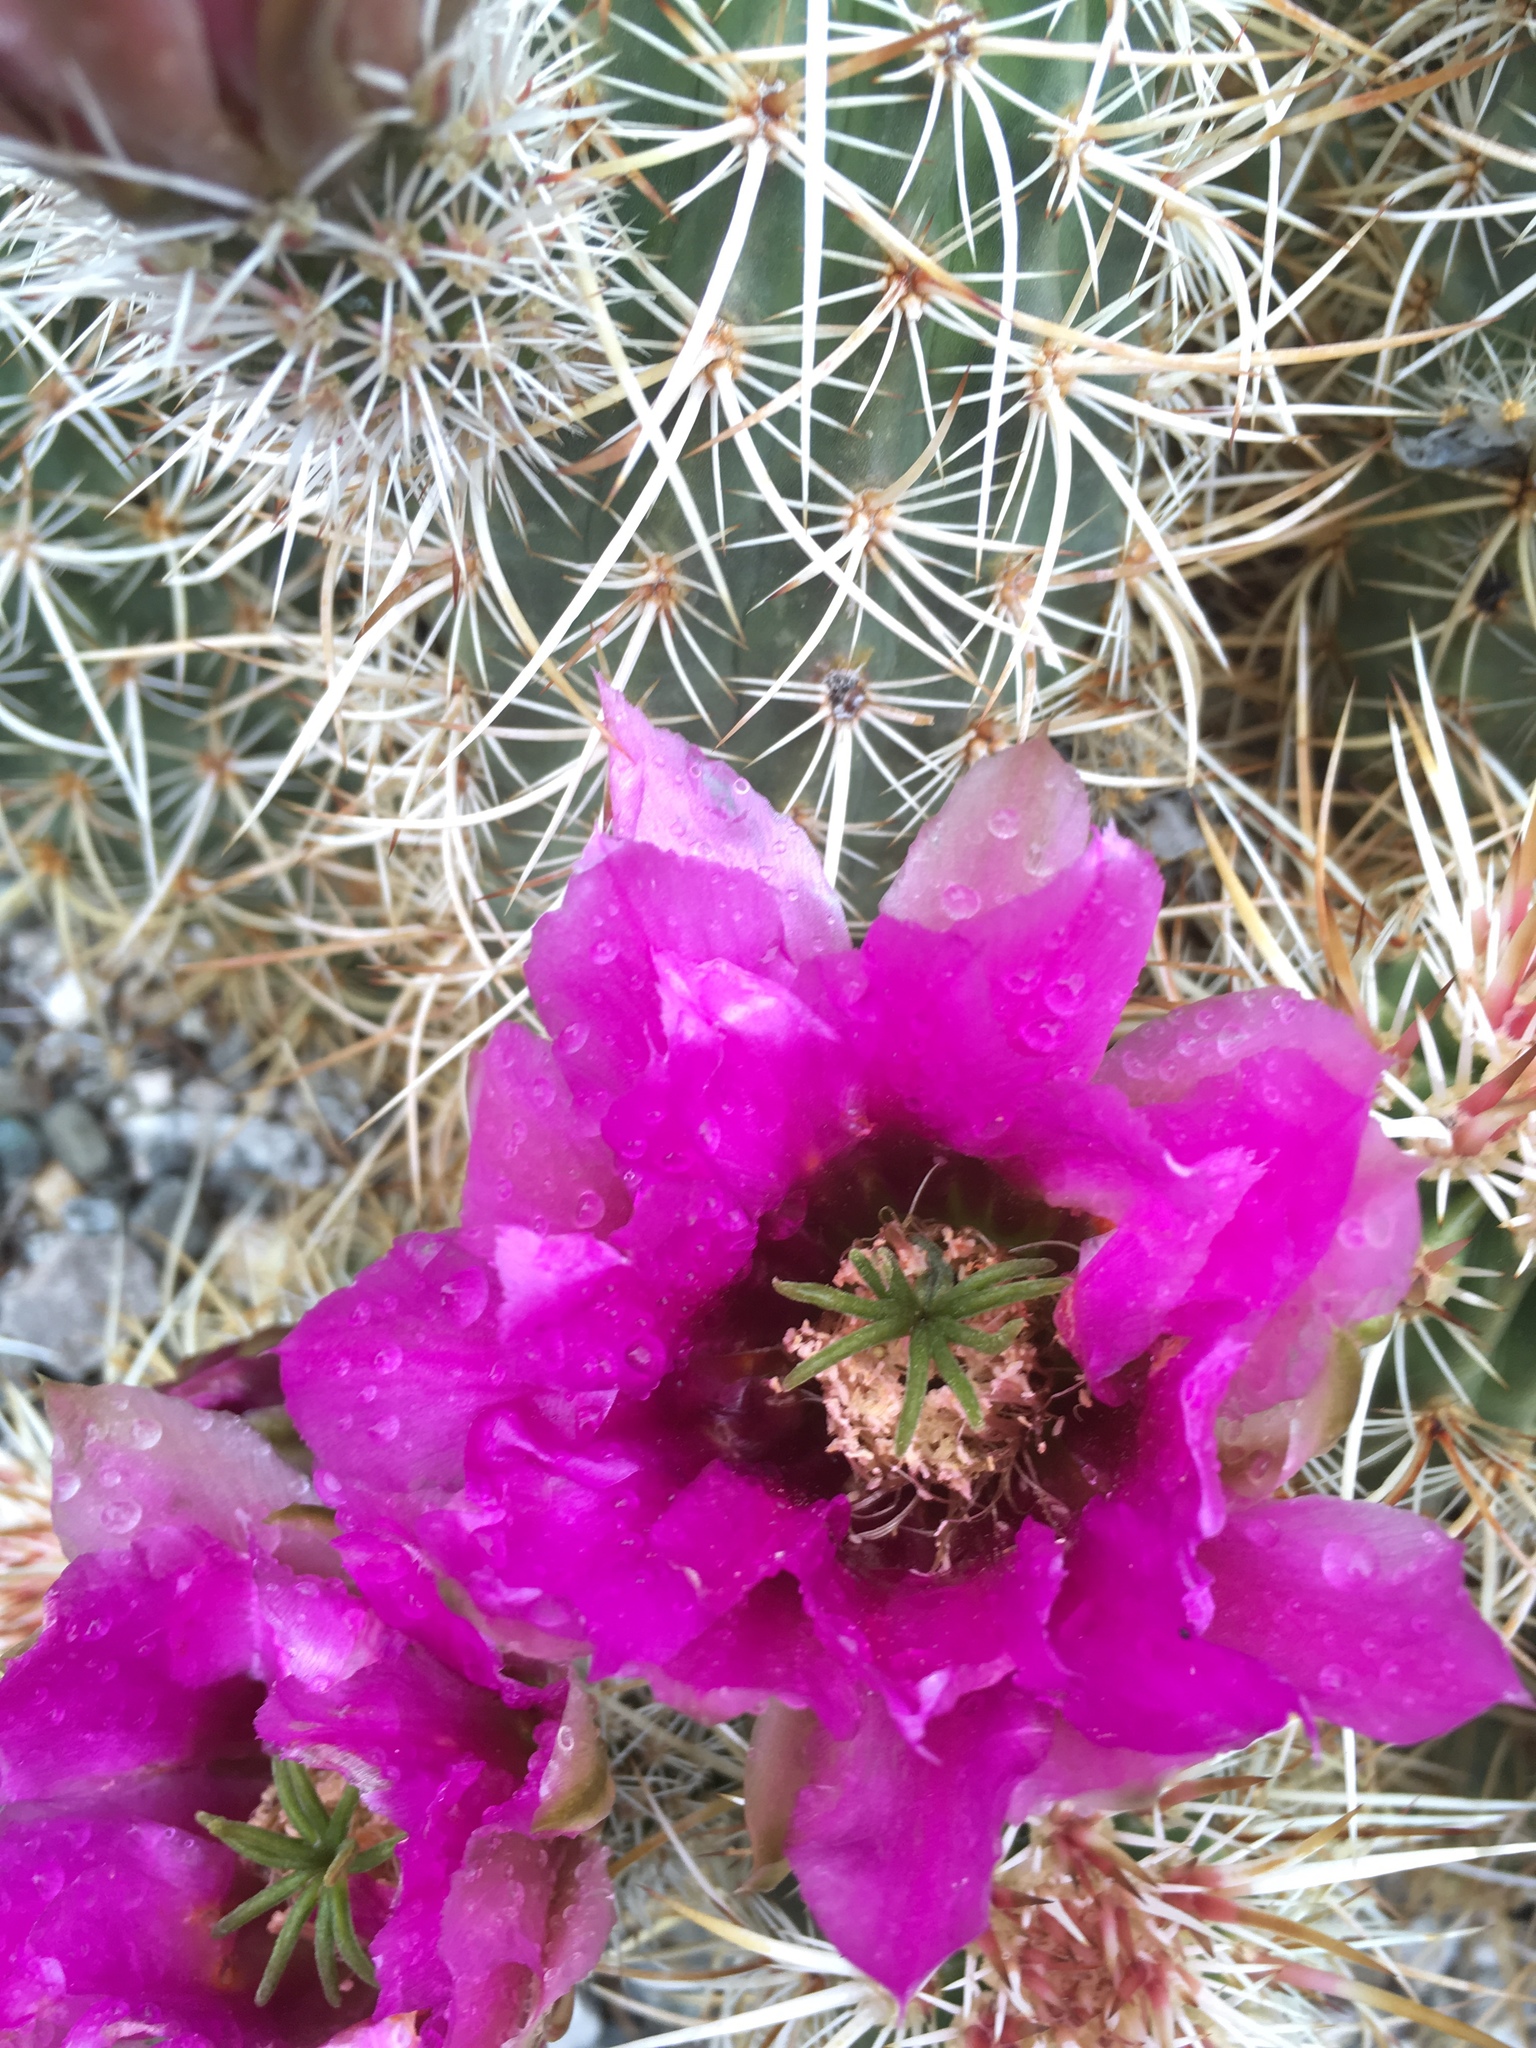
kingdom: Plantae
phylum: Tracheophyta
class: Magnoliopsida
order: Caryophyllales
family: Cactaceae
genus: Echinocereus
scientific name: Echinocereus engelmannii
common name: Engelmann's hedgehog cactus
